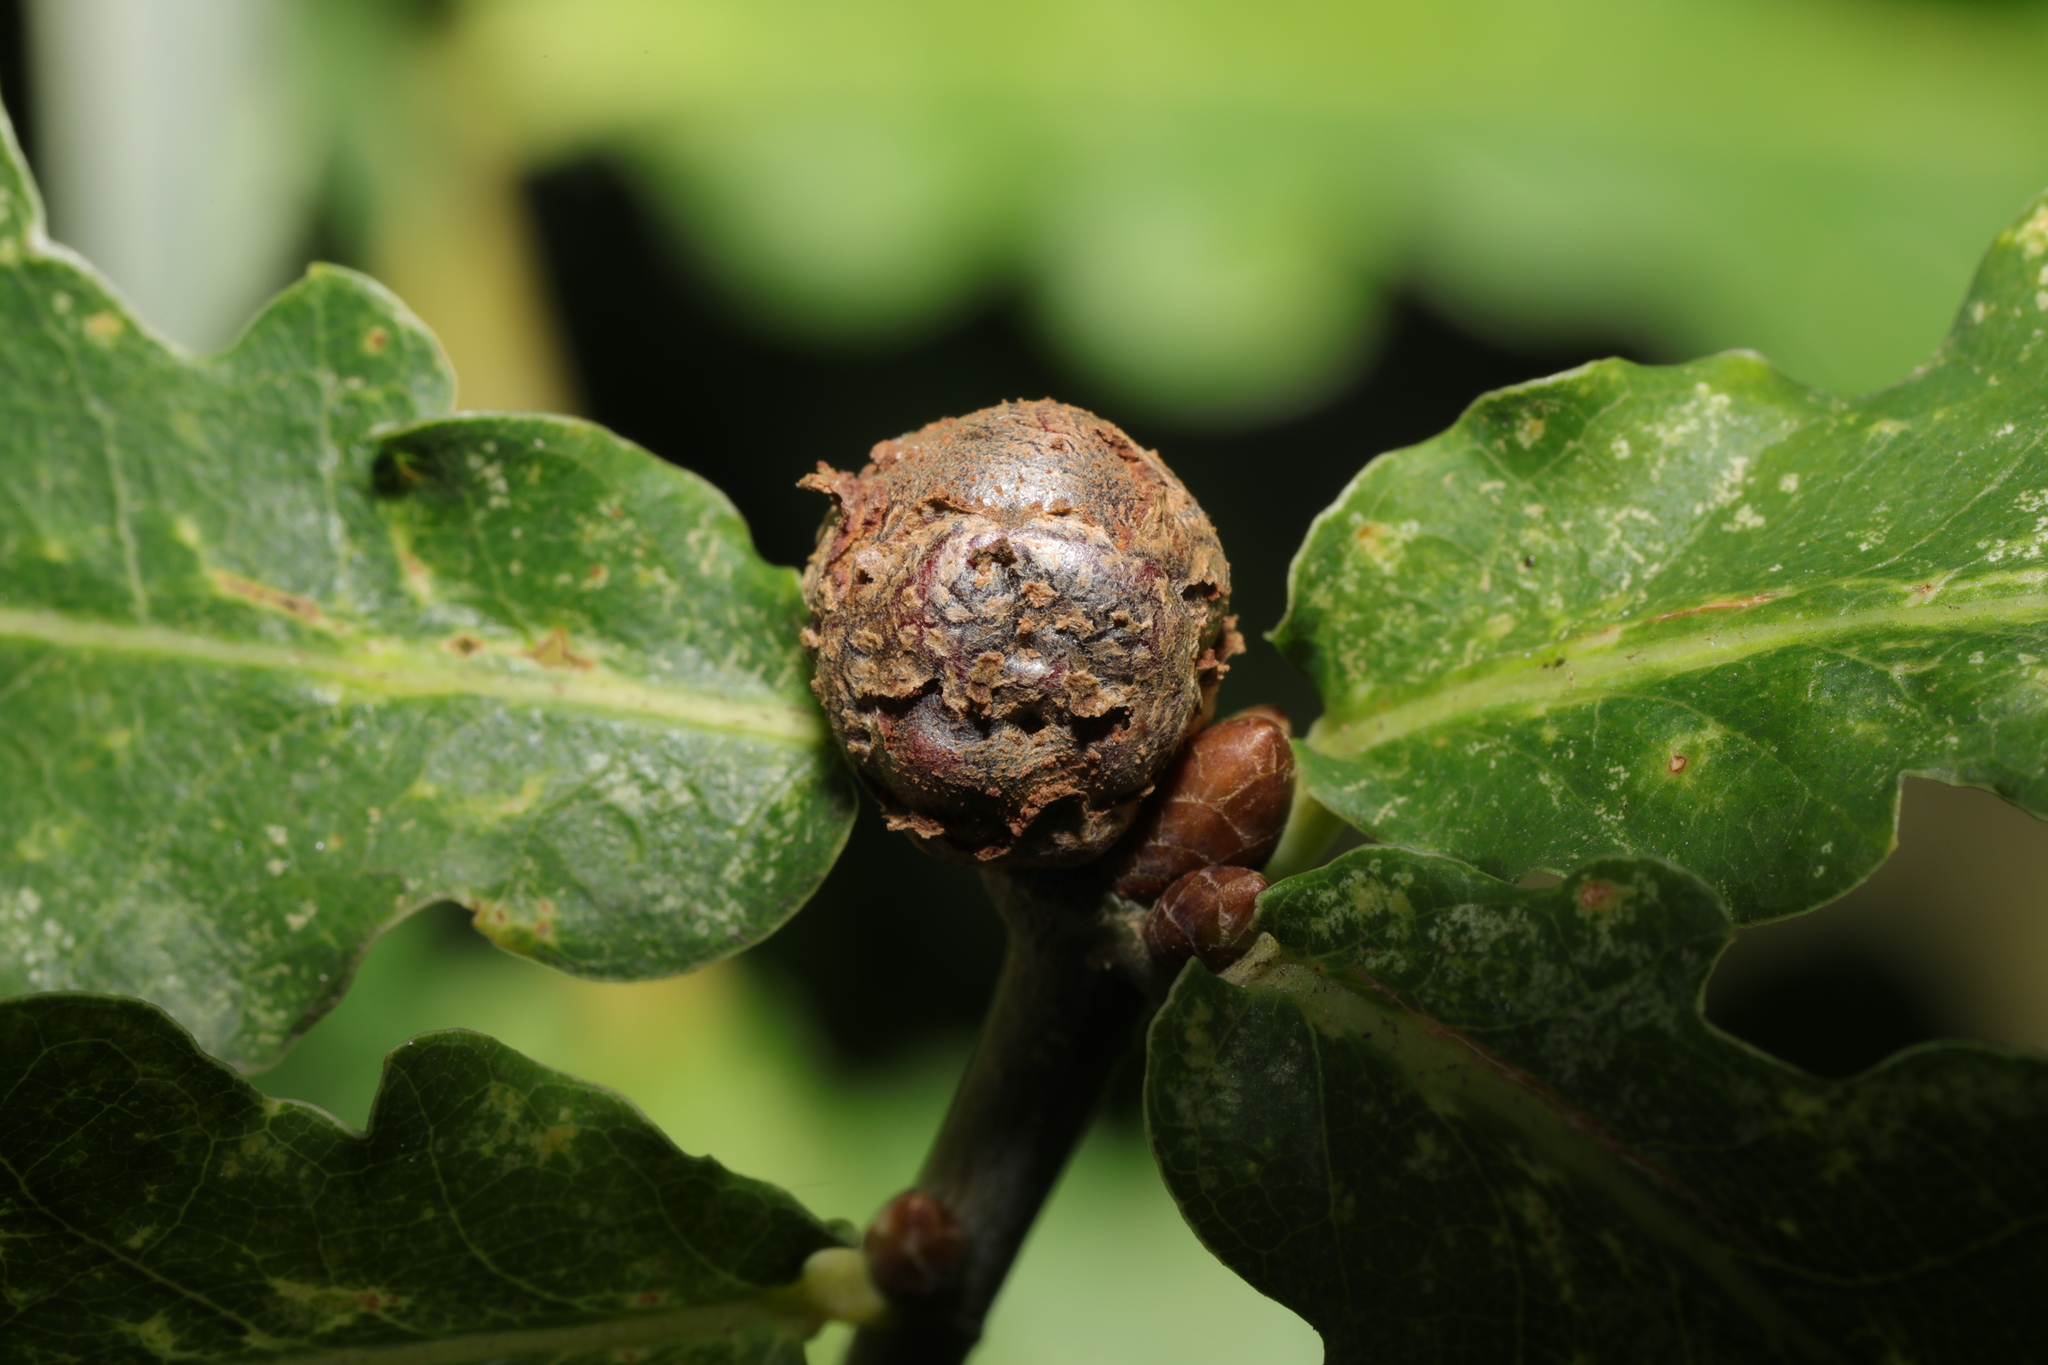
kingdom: Animalia
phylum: Arthropoda
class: Insecta
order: Hymenoptera
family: Cynipidae
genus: Andricus
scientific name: Andricus lignicolus
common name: Cola-nut gall
